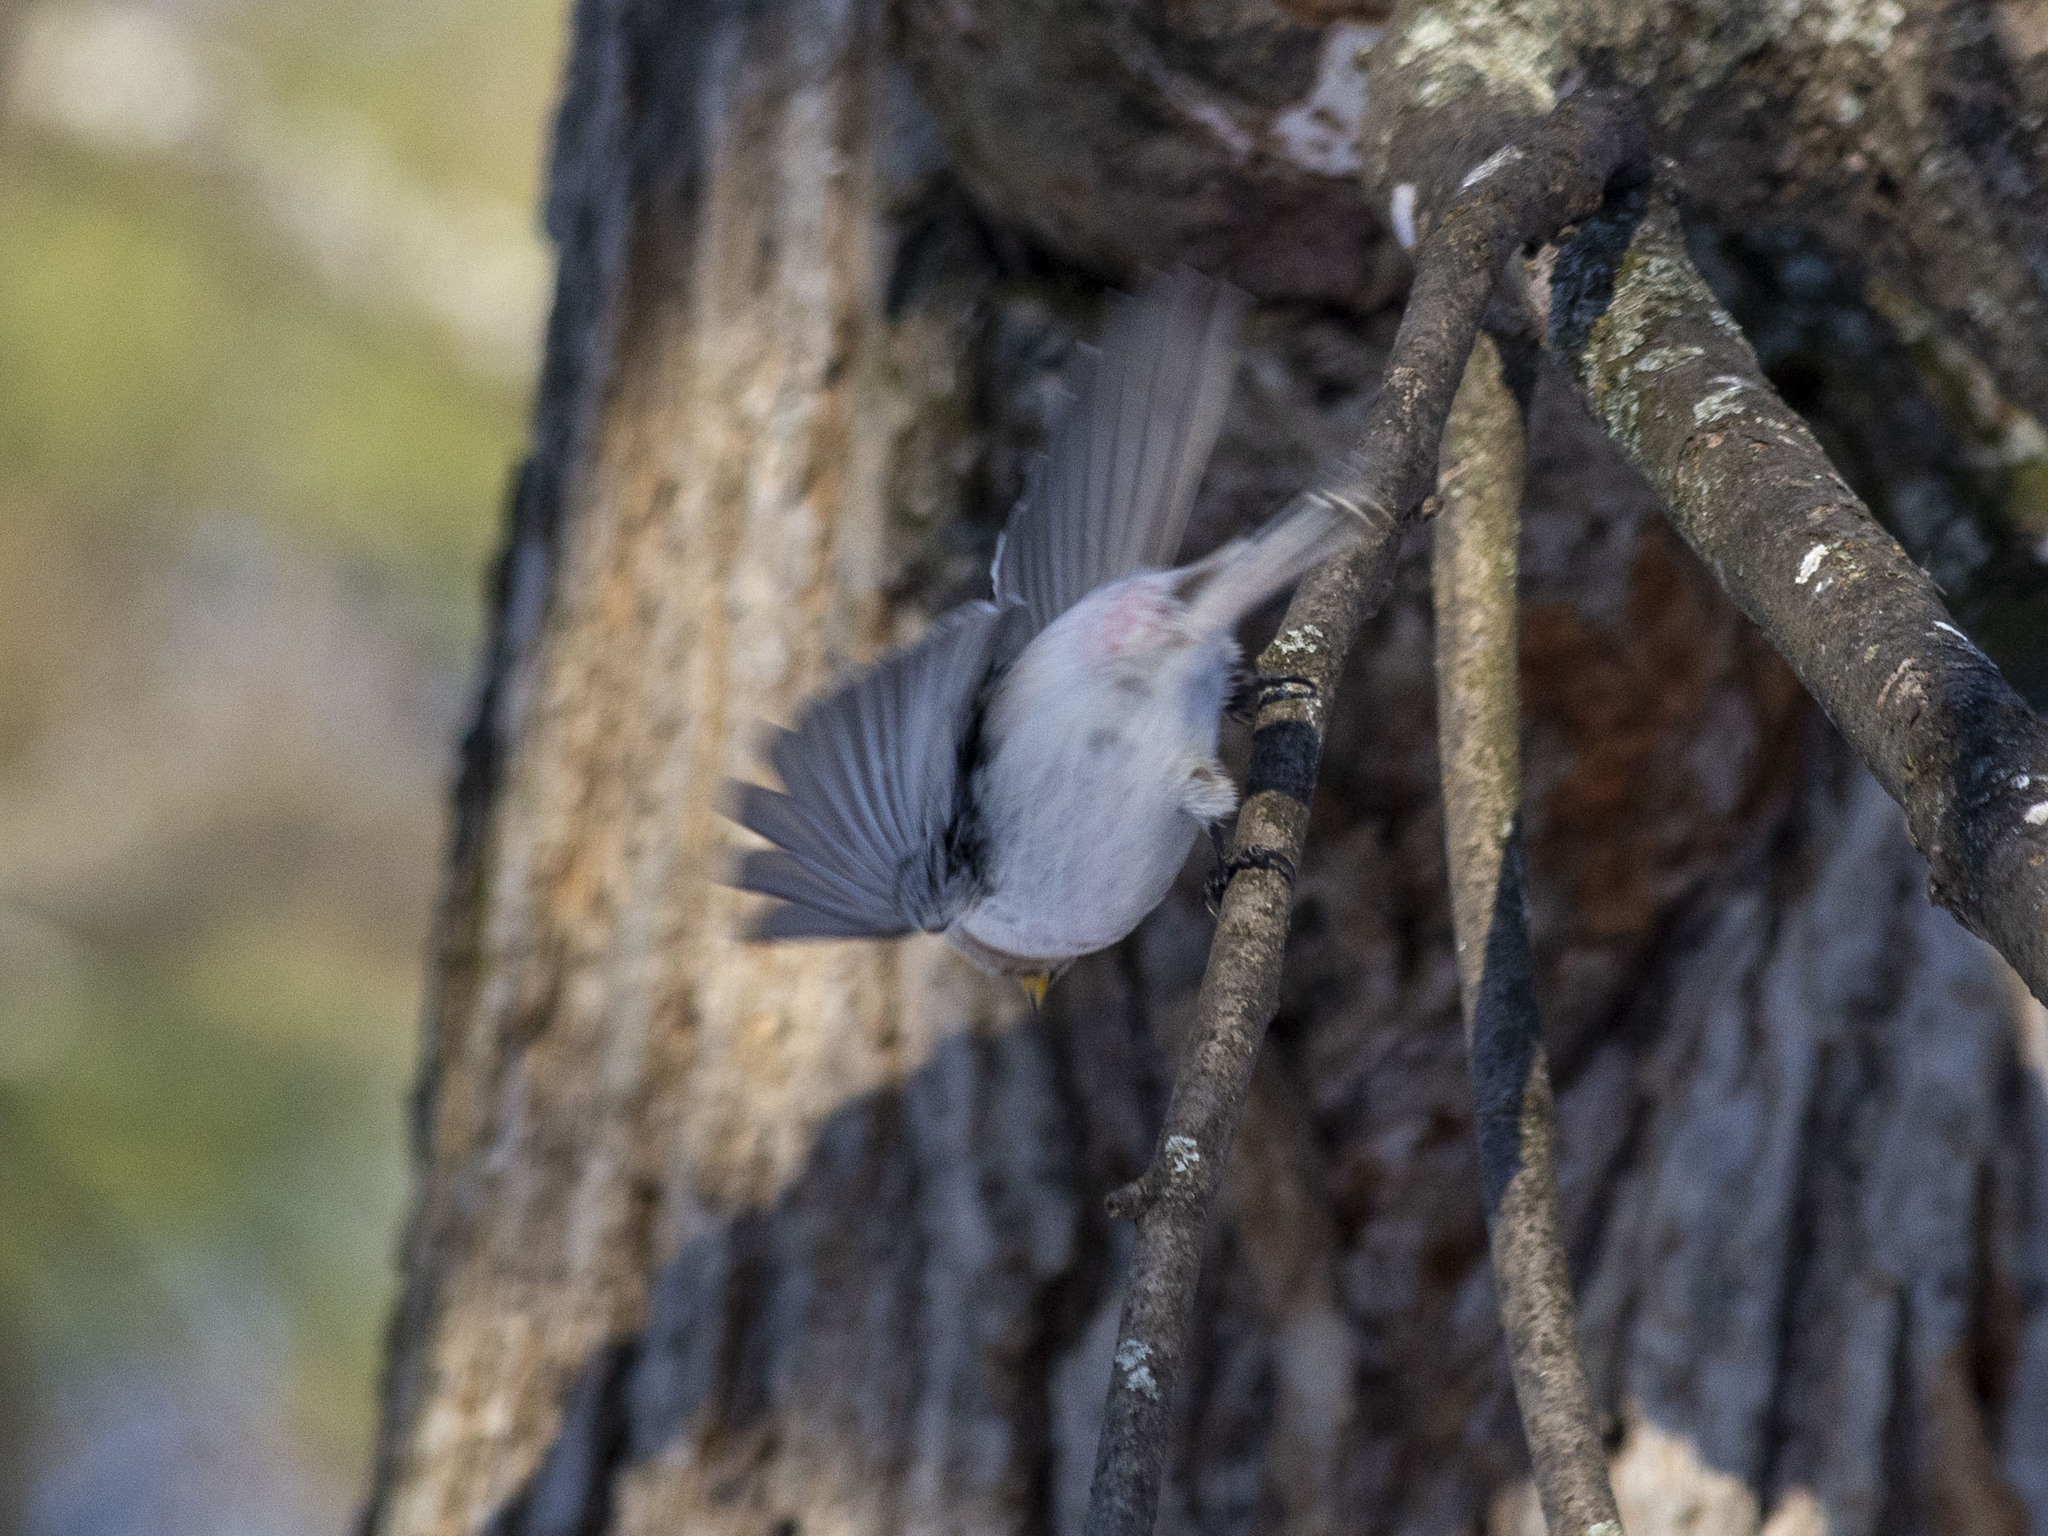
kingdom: Animalia
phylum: Chordata
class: Aves
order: Passeriformes
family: Fringillidae
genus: Acanthis
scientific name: Acanthis hornemanni
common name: Arctic redpoll
